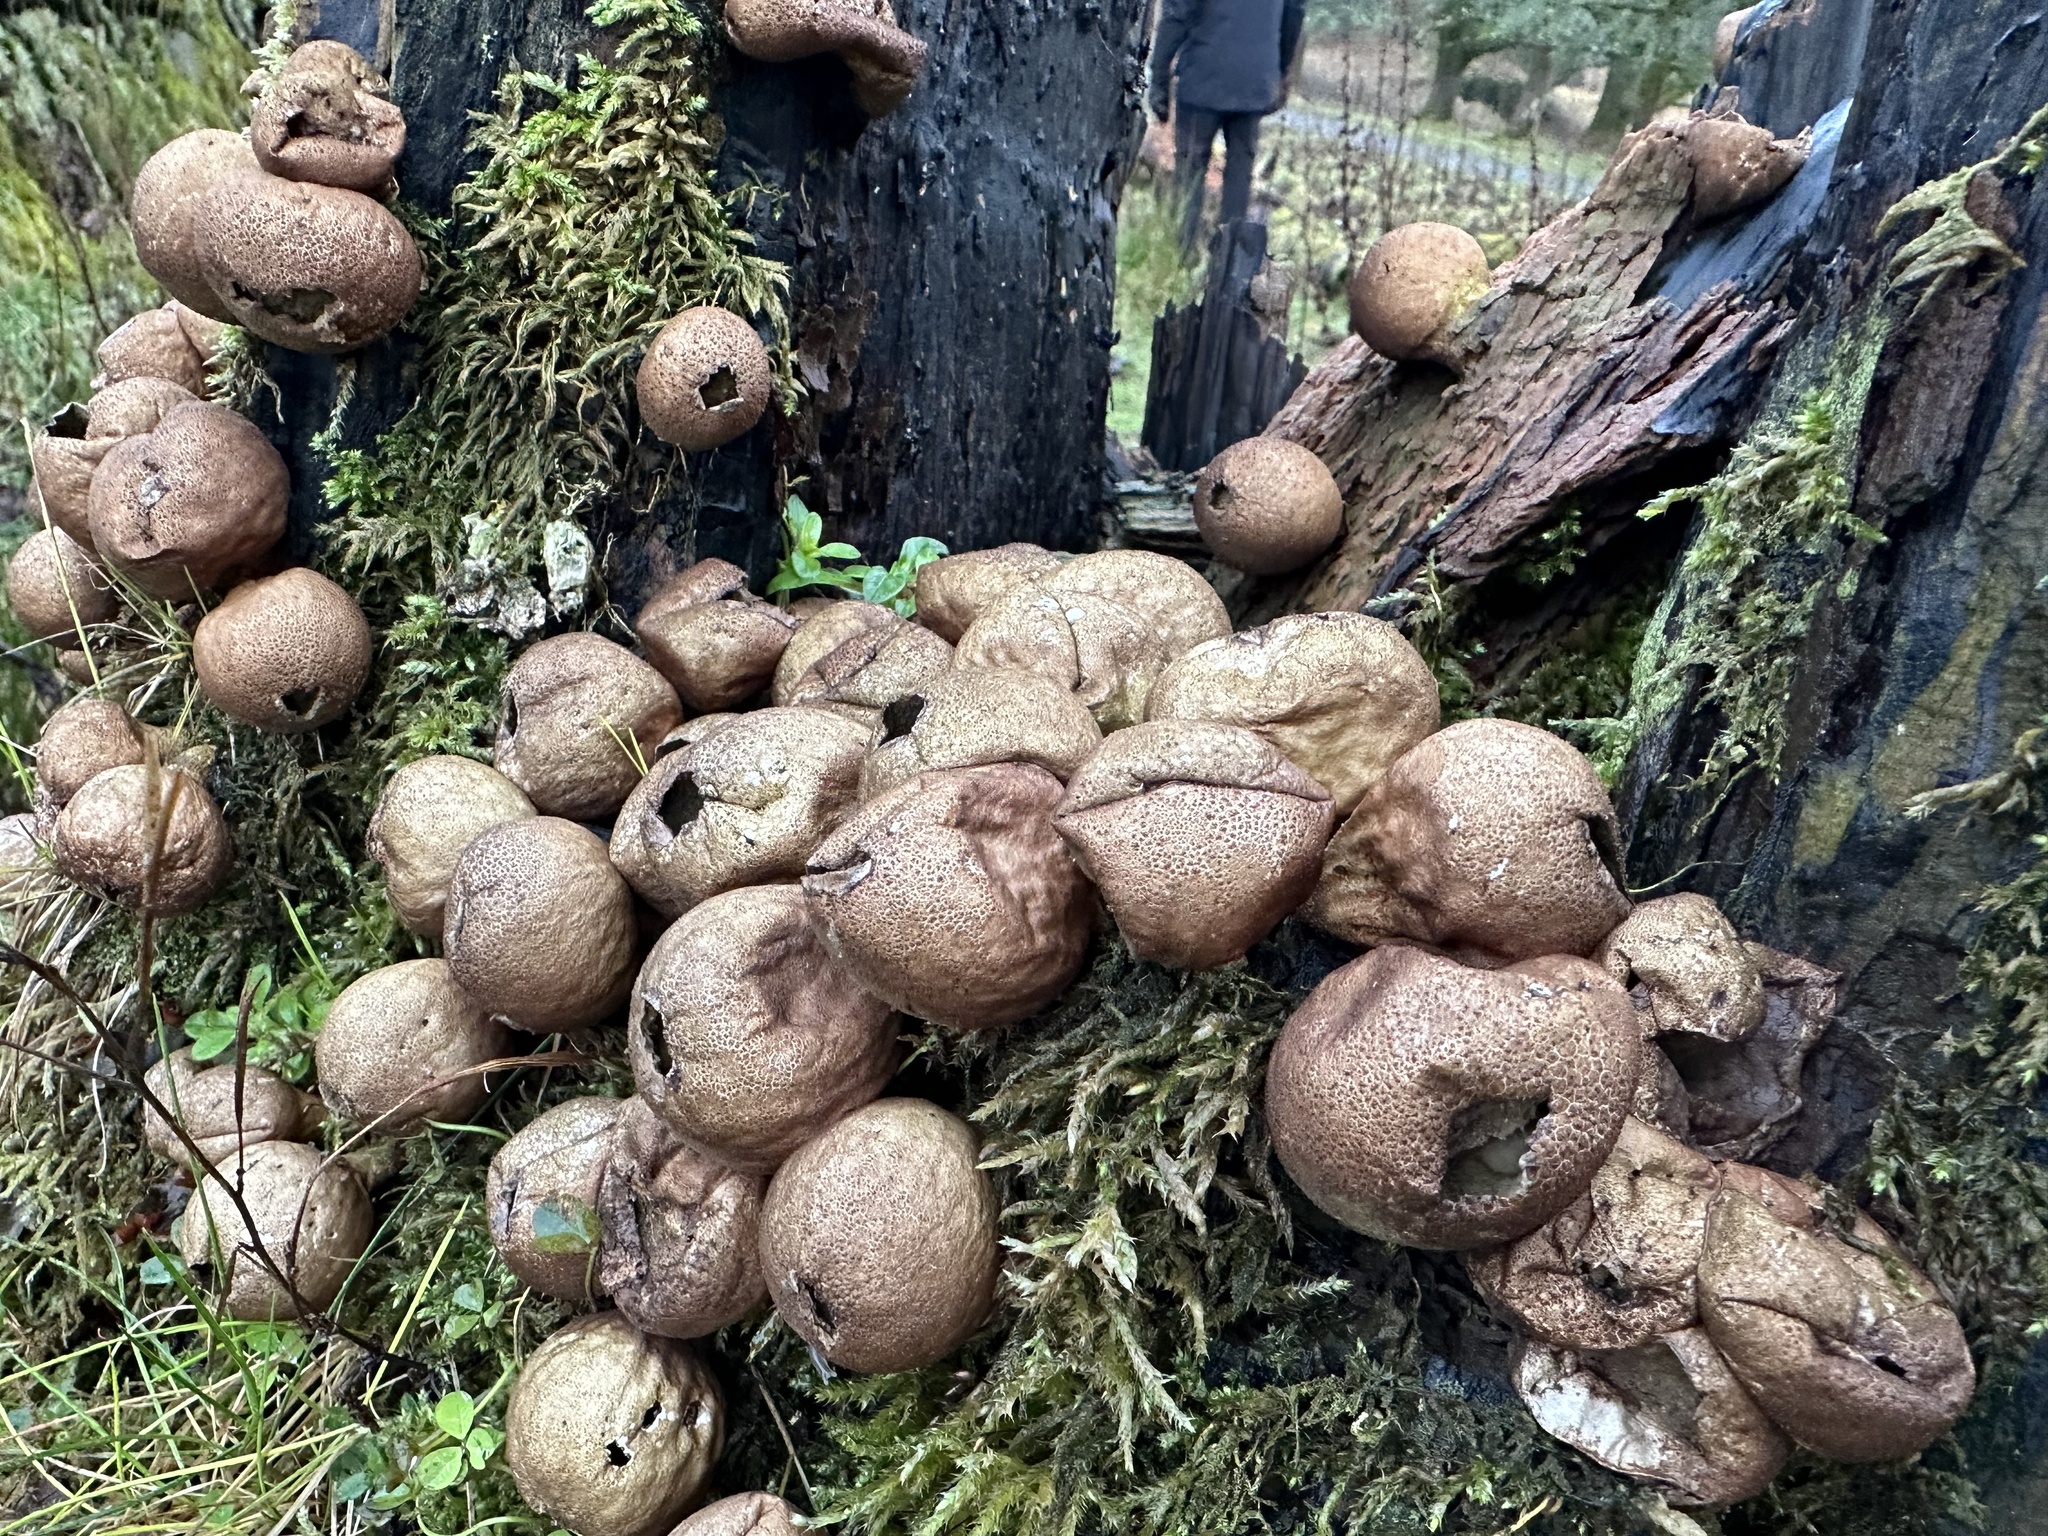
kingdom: Fungi
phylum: Basidiomycota
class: Agaricomycetes
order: Agaricales
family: Lycoperdaceae
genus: Apioperdon
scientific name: Apioperdon pyriforme
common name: Pear-shaped puffball
